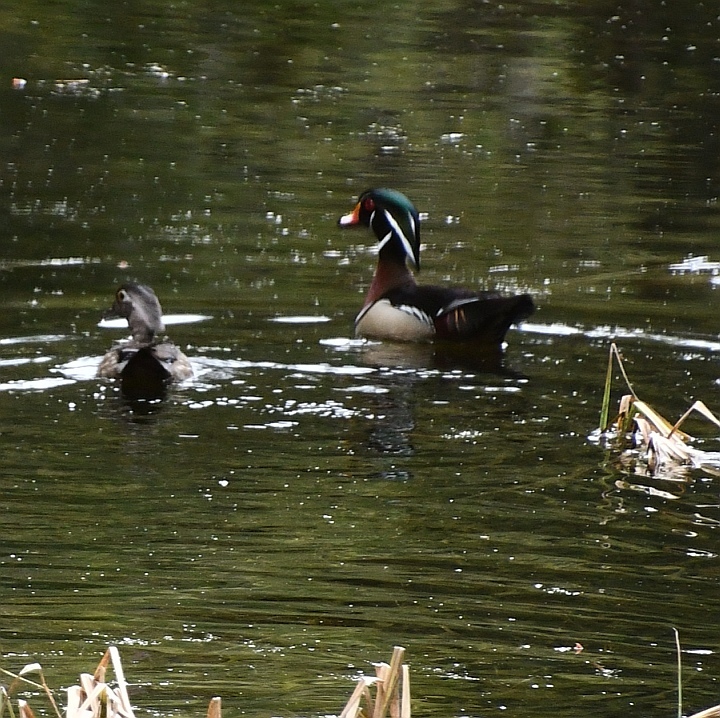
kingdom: Animalia
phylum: Chordata
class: Aves
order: Anseriformes
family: Anatidae
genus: Aix
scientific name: Aix sponsa
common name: Wood duck
